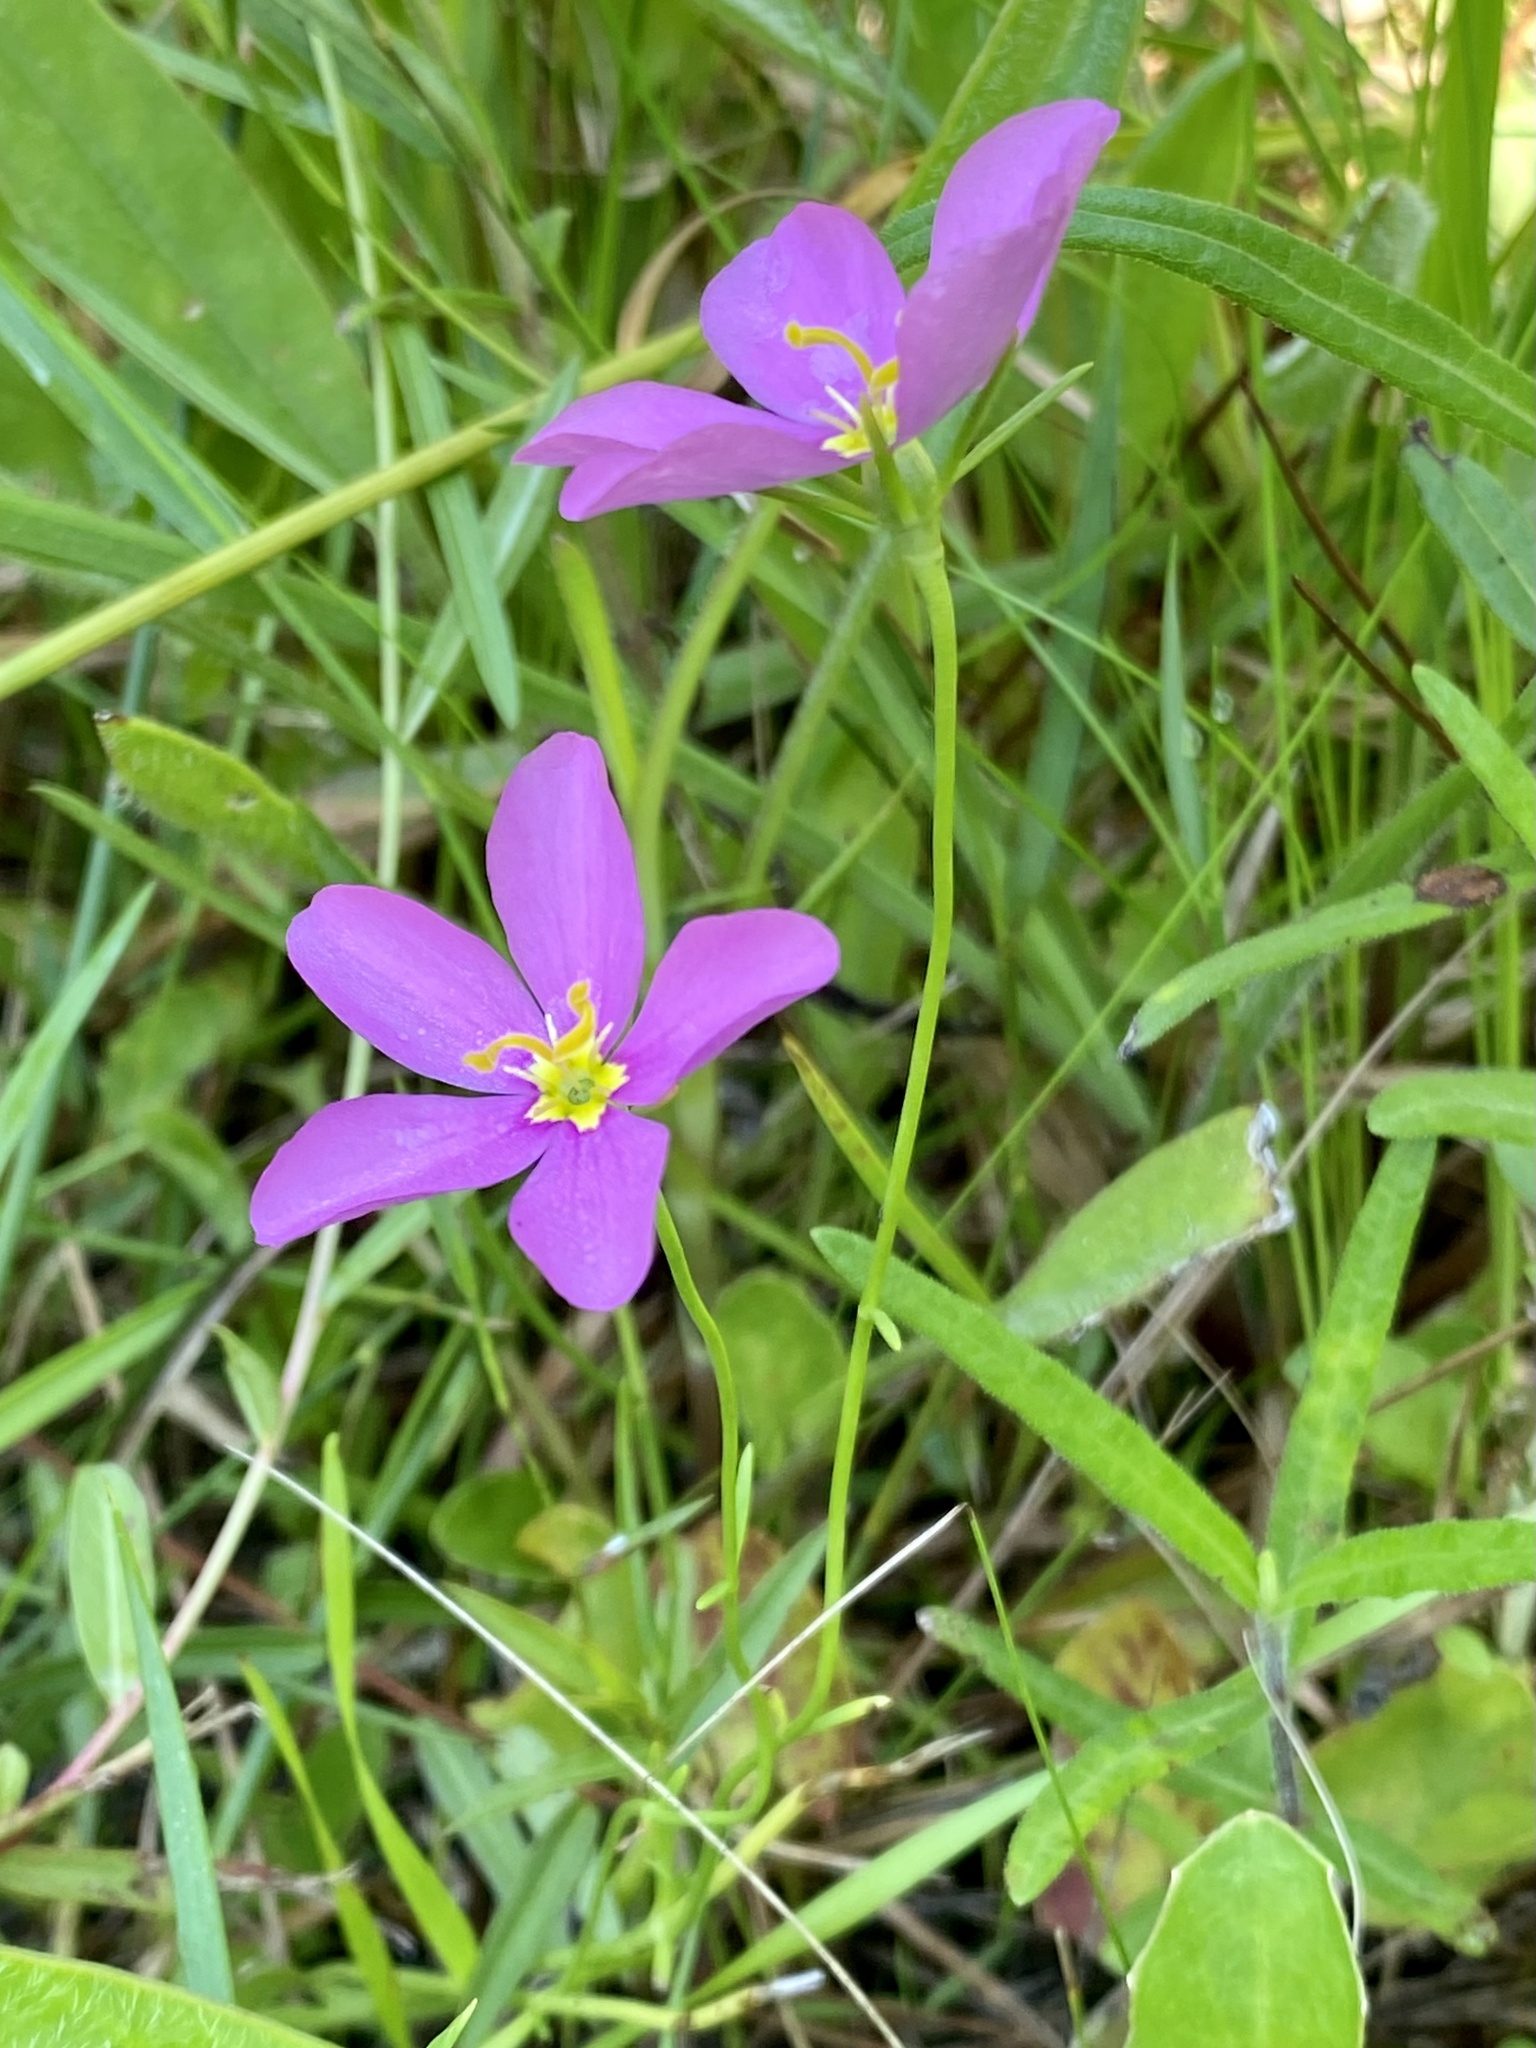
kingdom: Plantae
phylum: Tracheophyta
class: Magnoliopsida
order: Gentianales
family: Gentianaceae
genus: Sabatia
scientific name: Sabatia grandiflora
